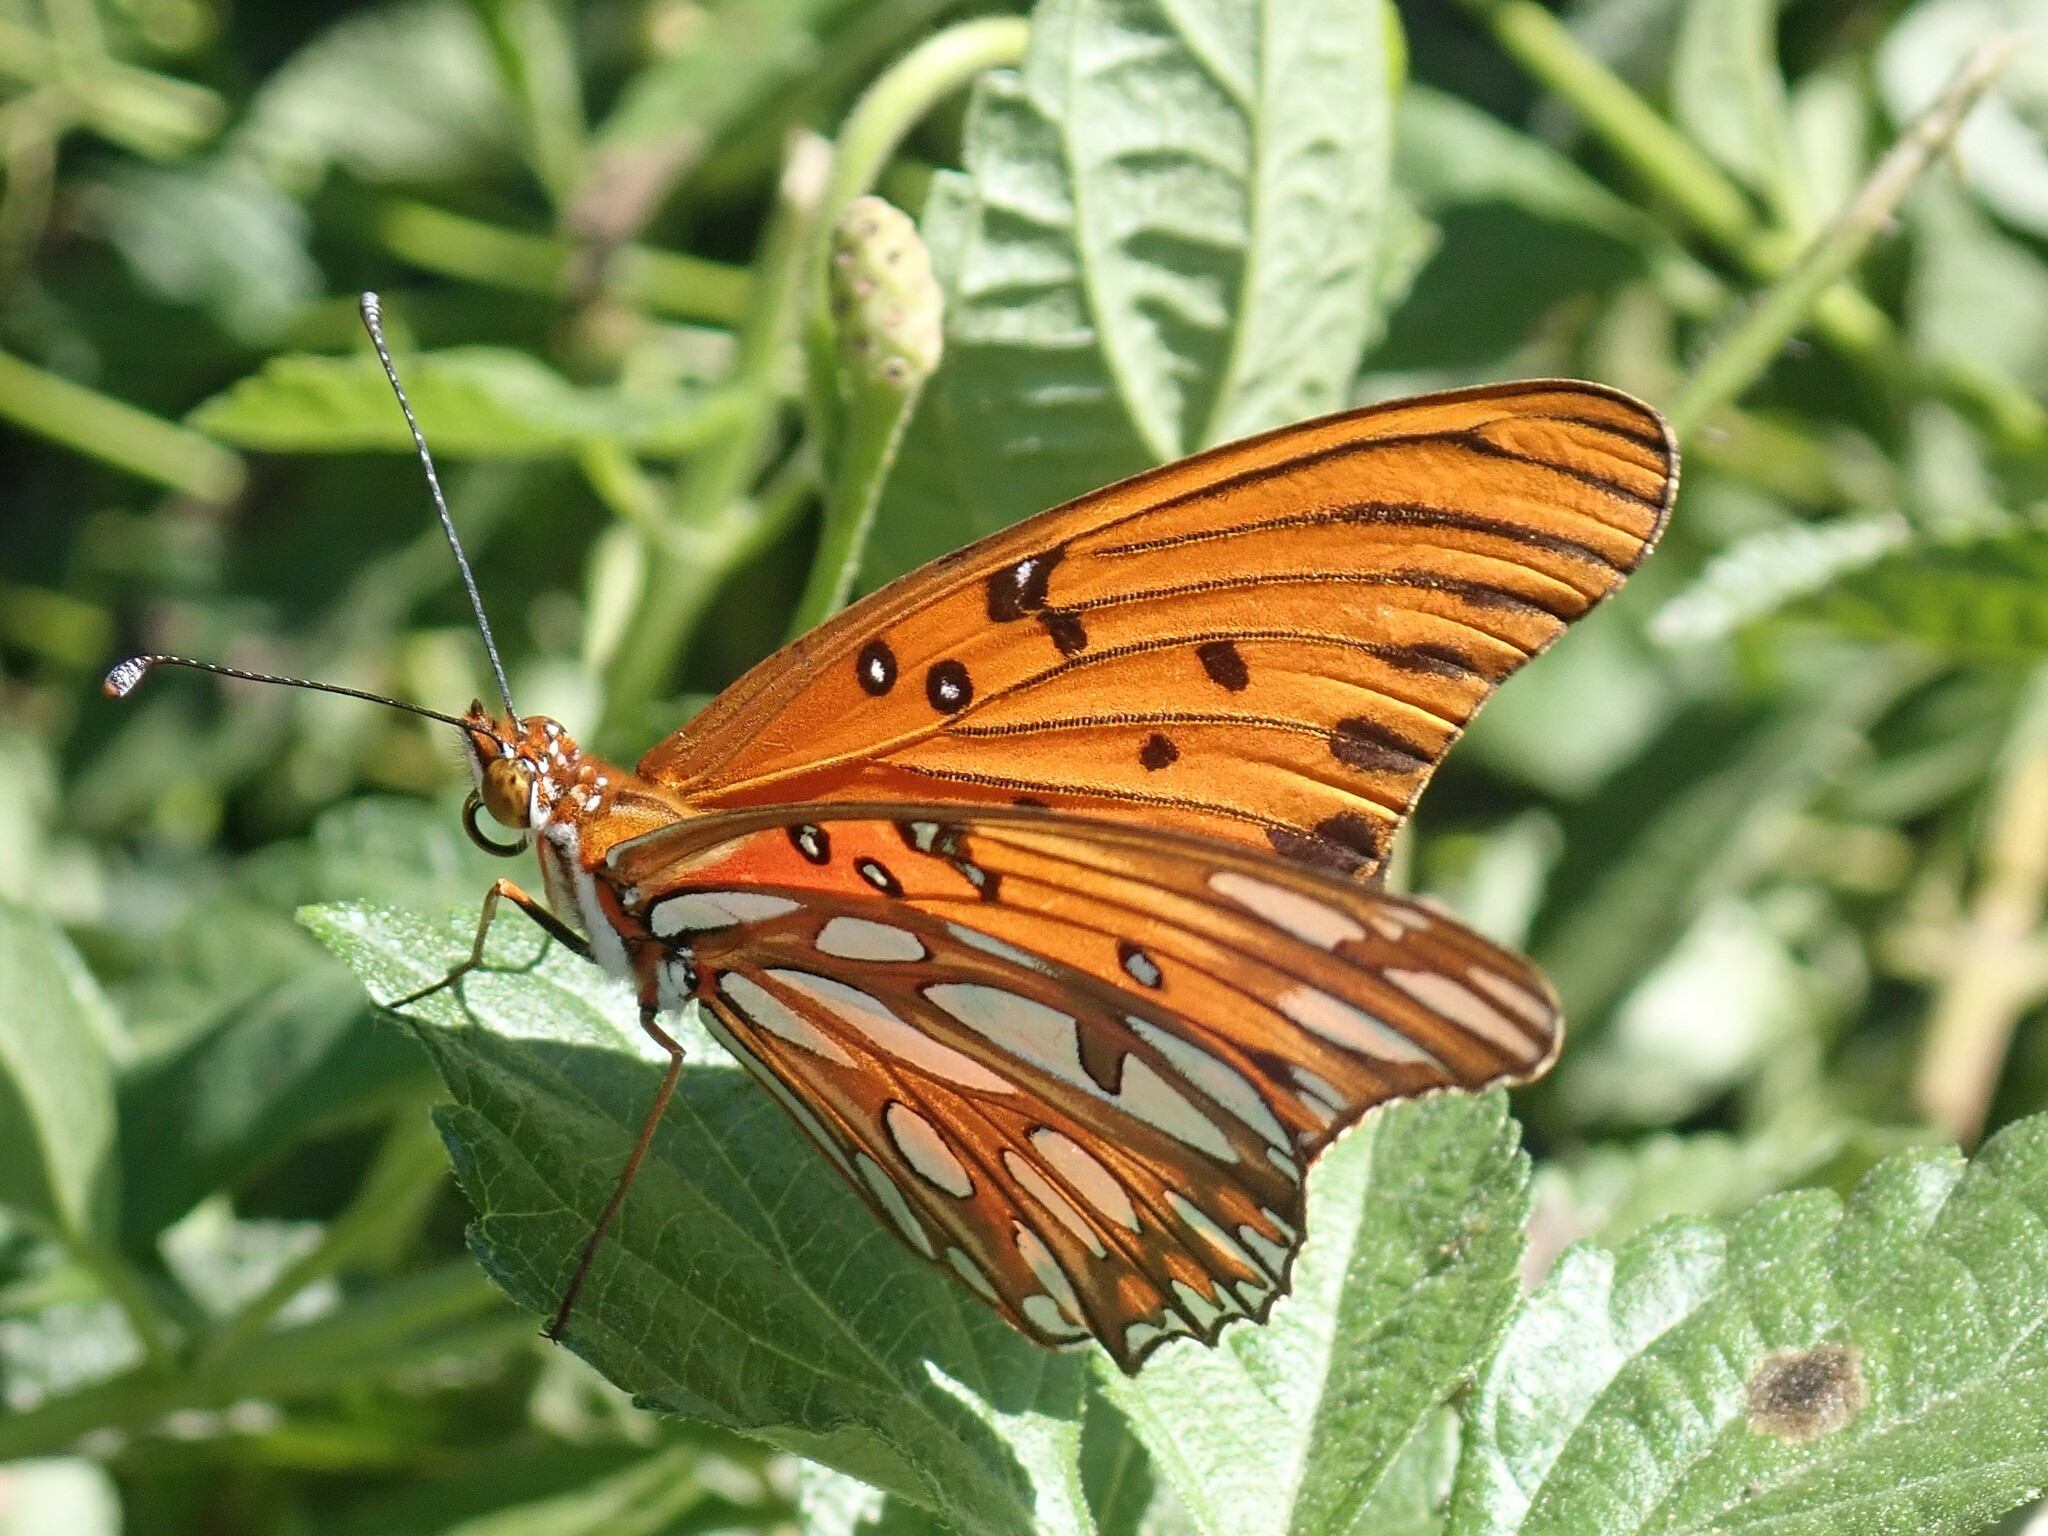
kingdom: Animalia
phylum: Arthropoda
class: Insecta
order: Lepidoptera
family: Nymphalidae
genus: Dione
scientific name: Dione vanillae
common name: Gulf fritillary
